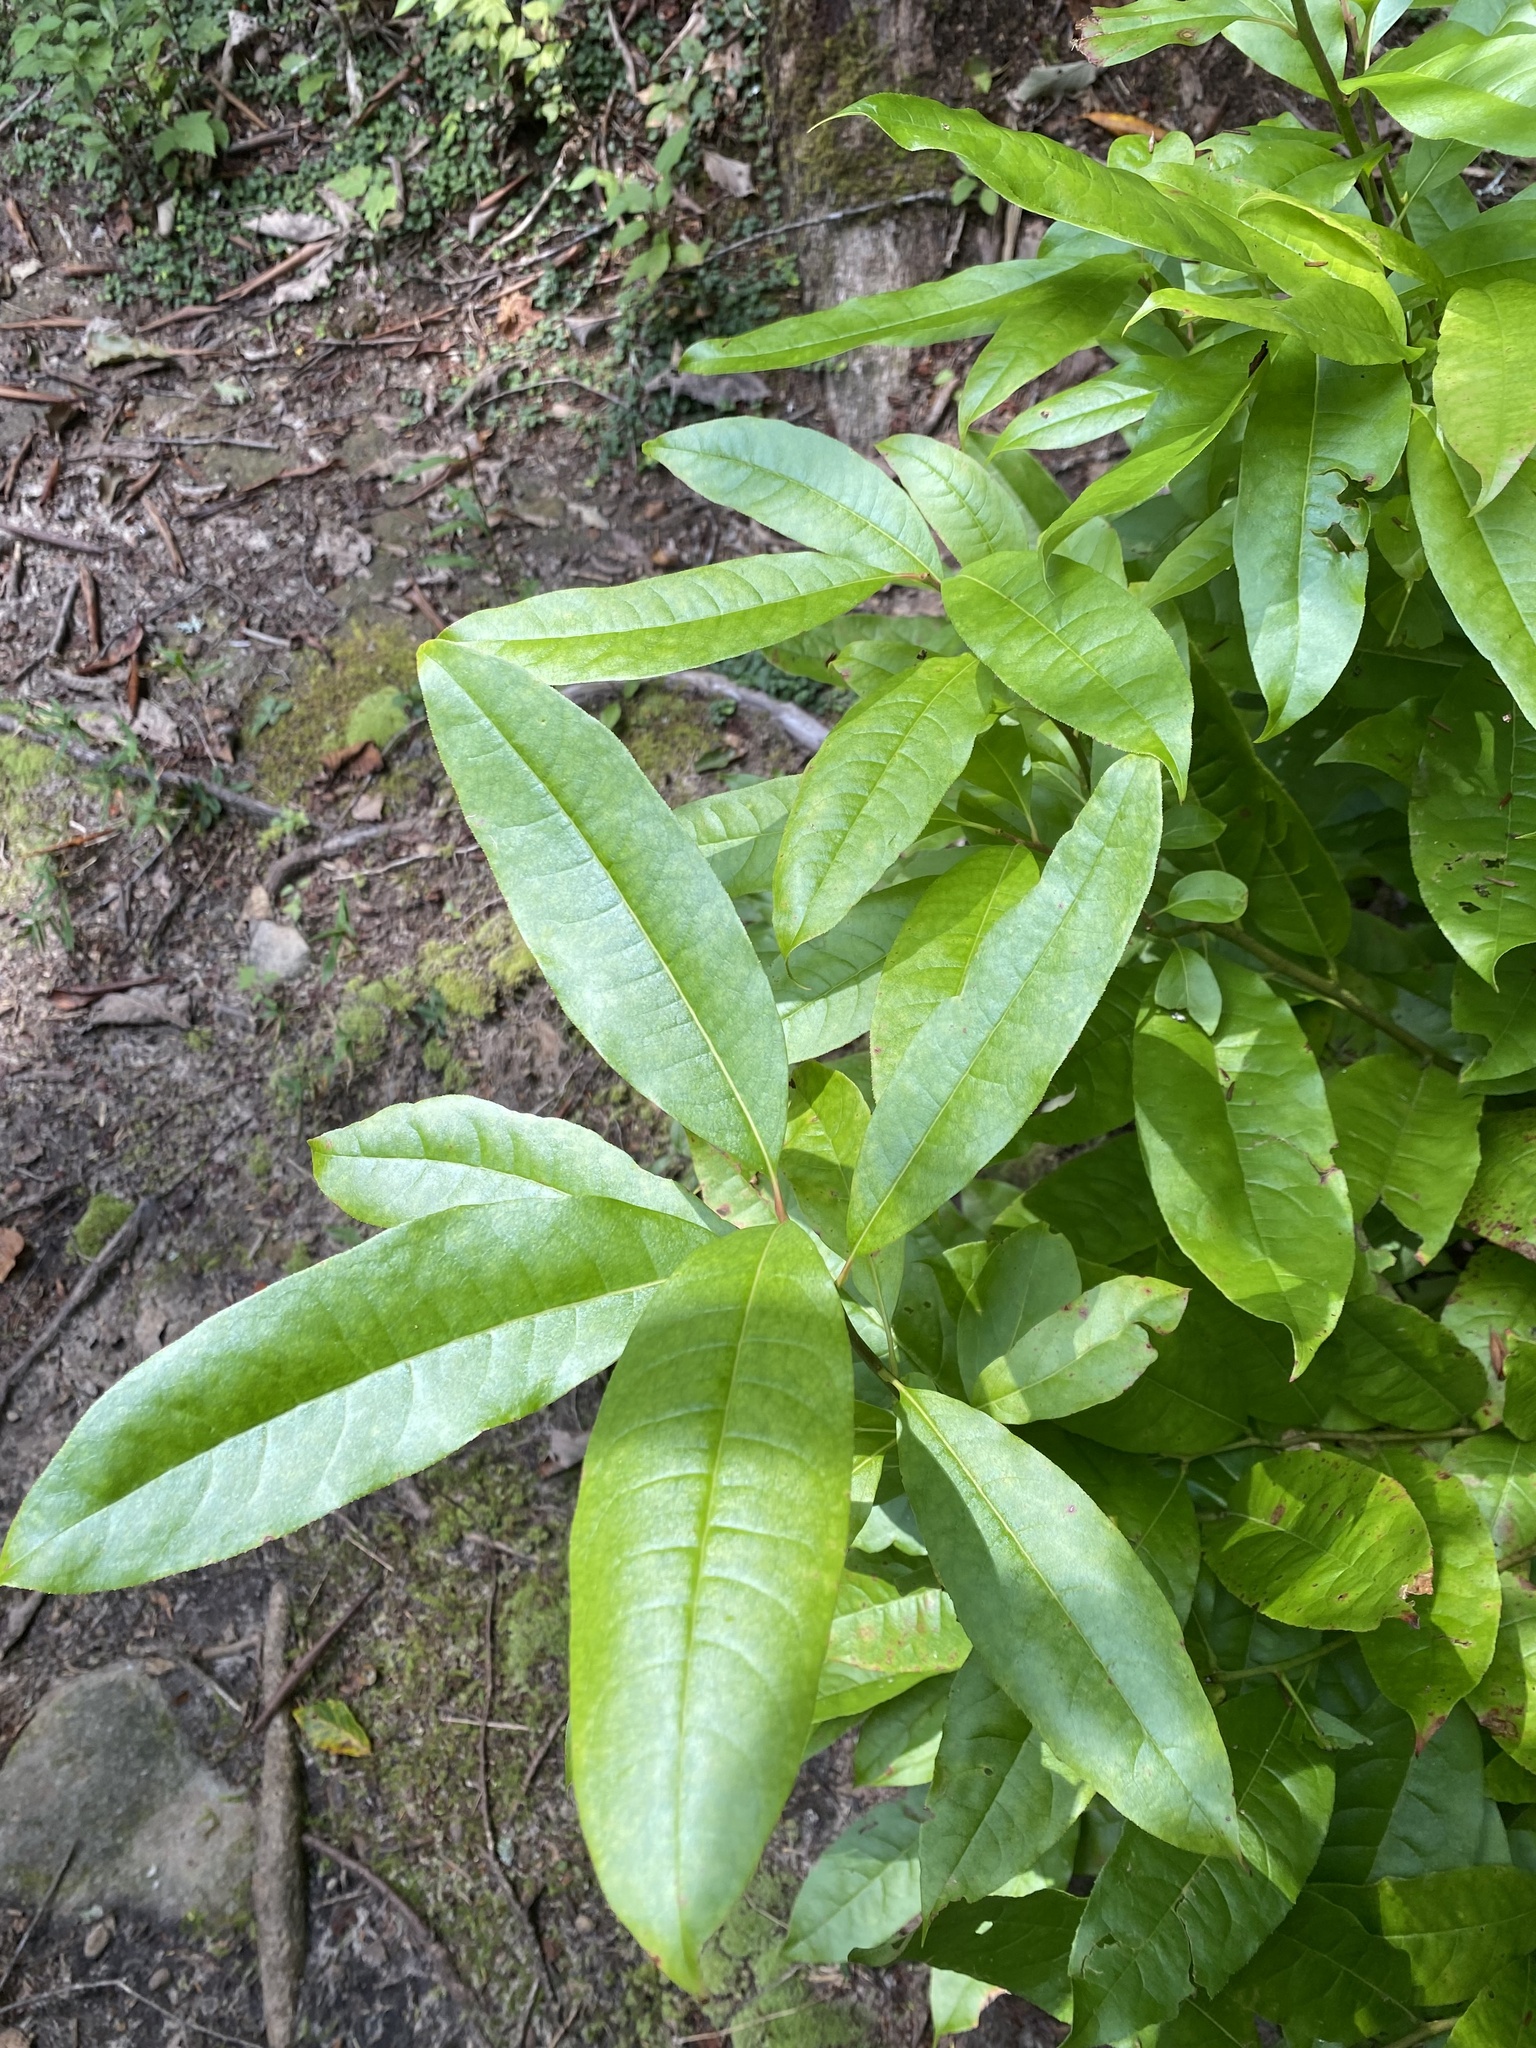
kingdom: Plantae
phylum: Tracheophyta
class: Magnoliopsida
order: Ericales
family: Ericaceae
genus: Oxydendrum
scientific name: Oxydendrum arboreum
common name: Sourwood
